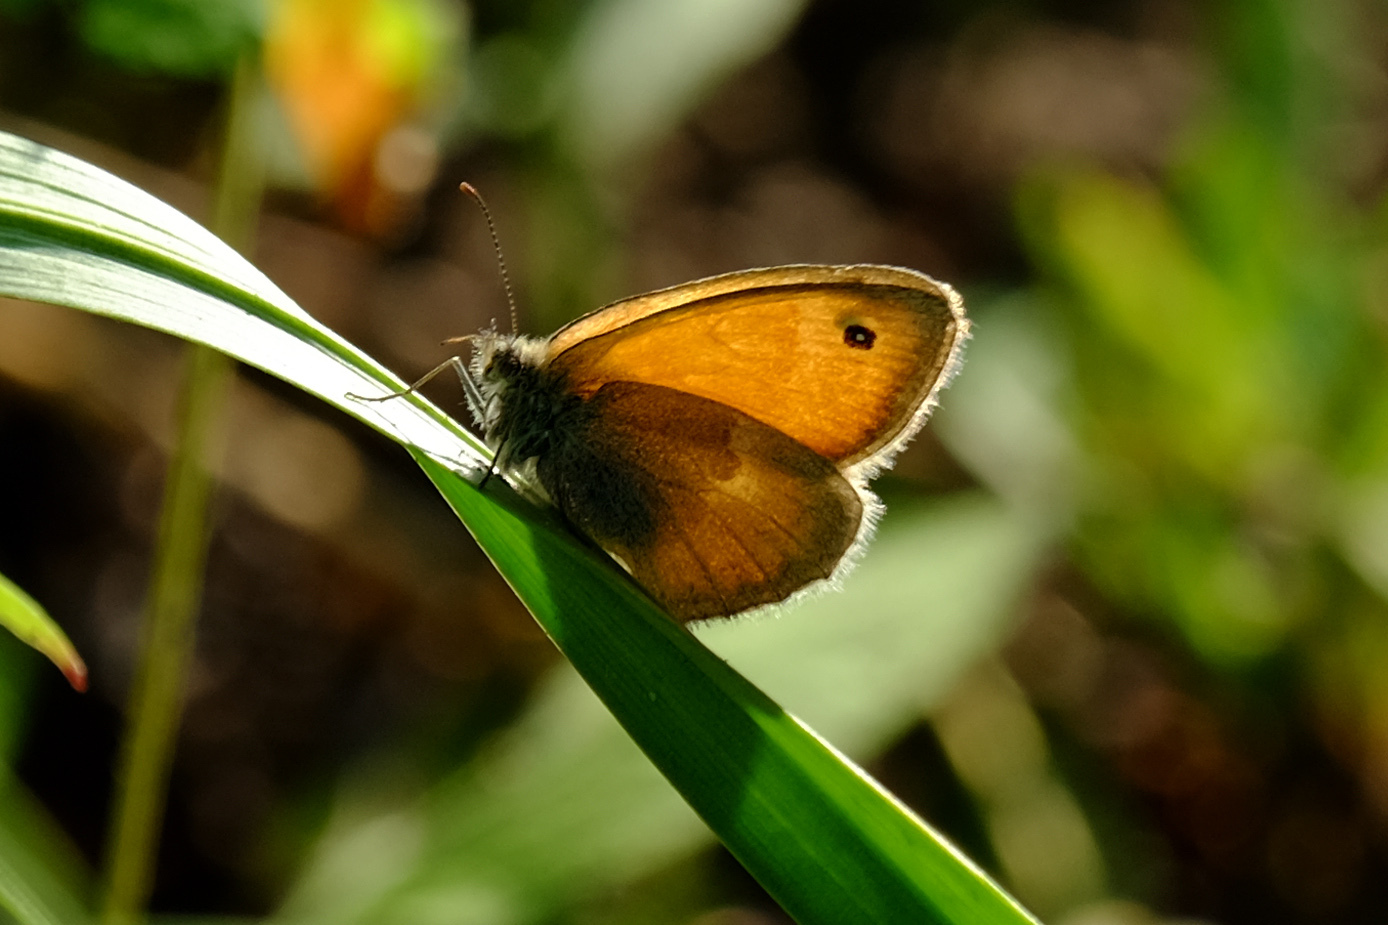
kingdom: Animalia
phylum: Arthropoda
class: Insecta
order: Lepidoptera
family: Nymphalidae
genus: Coenonympha
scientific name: Coenonympha pamphilus
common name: Small heath
